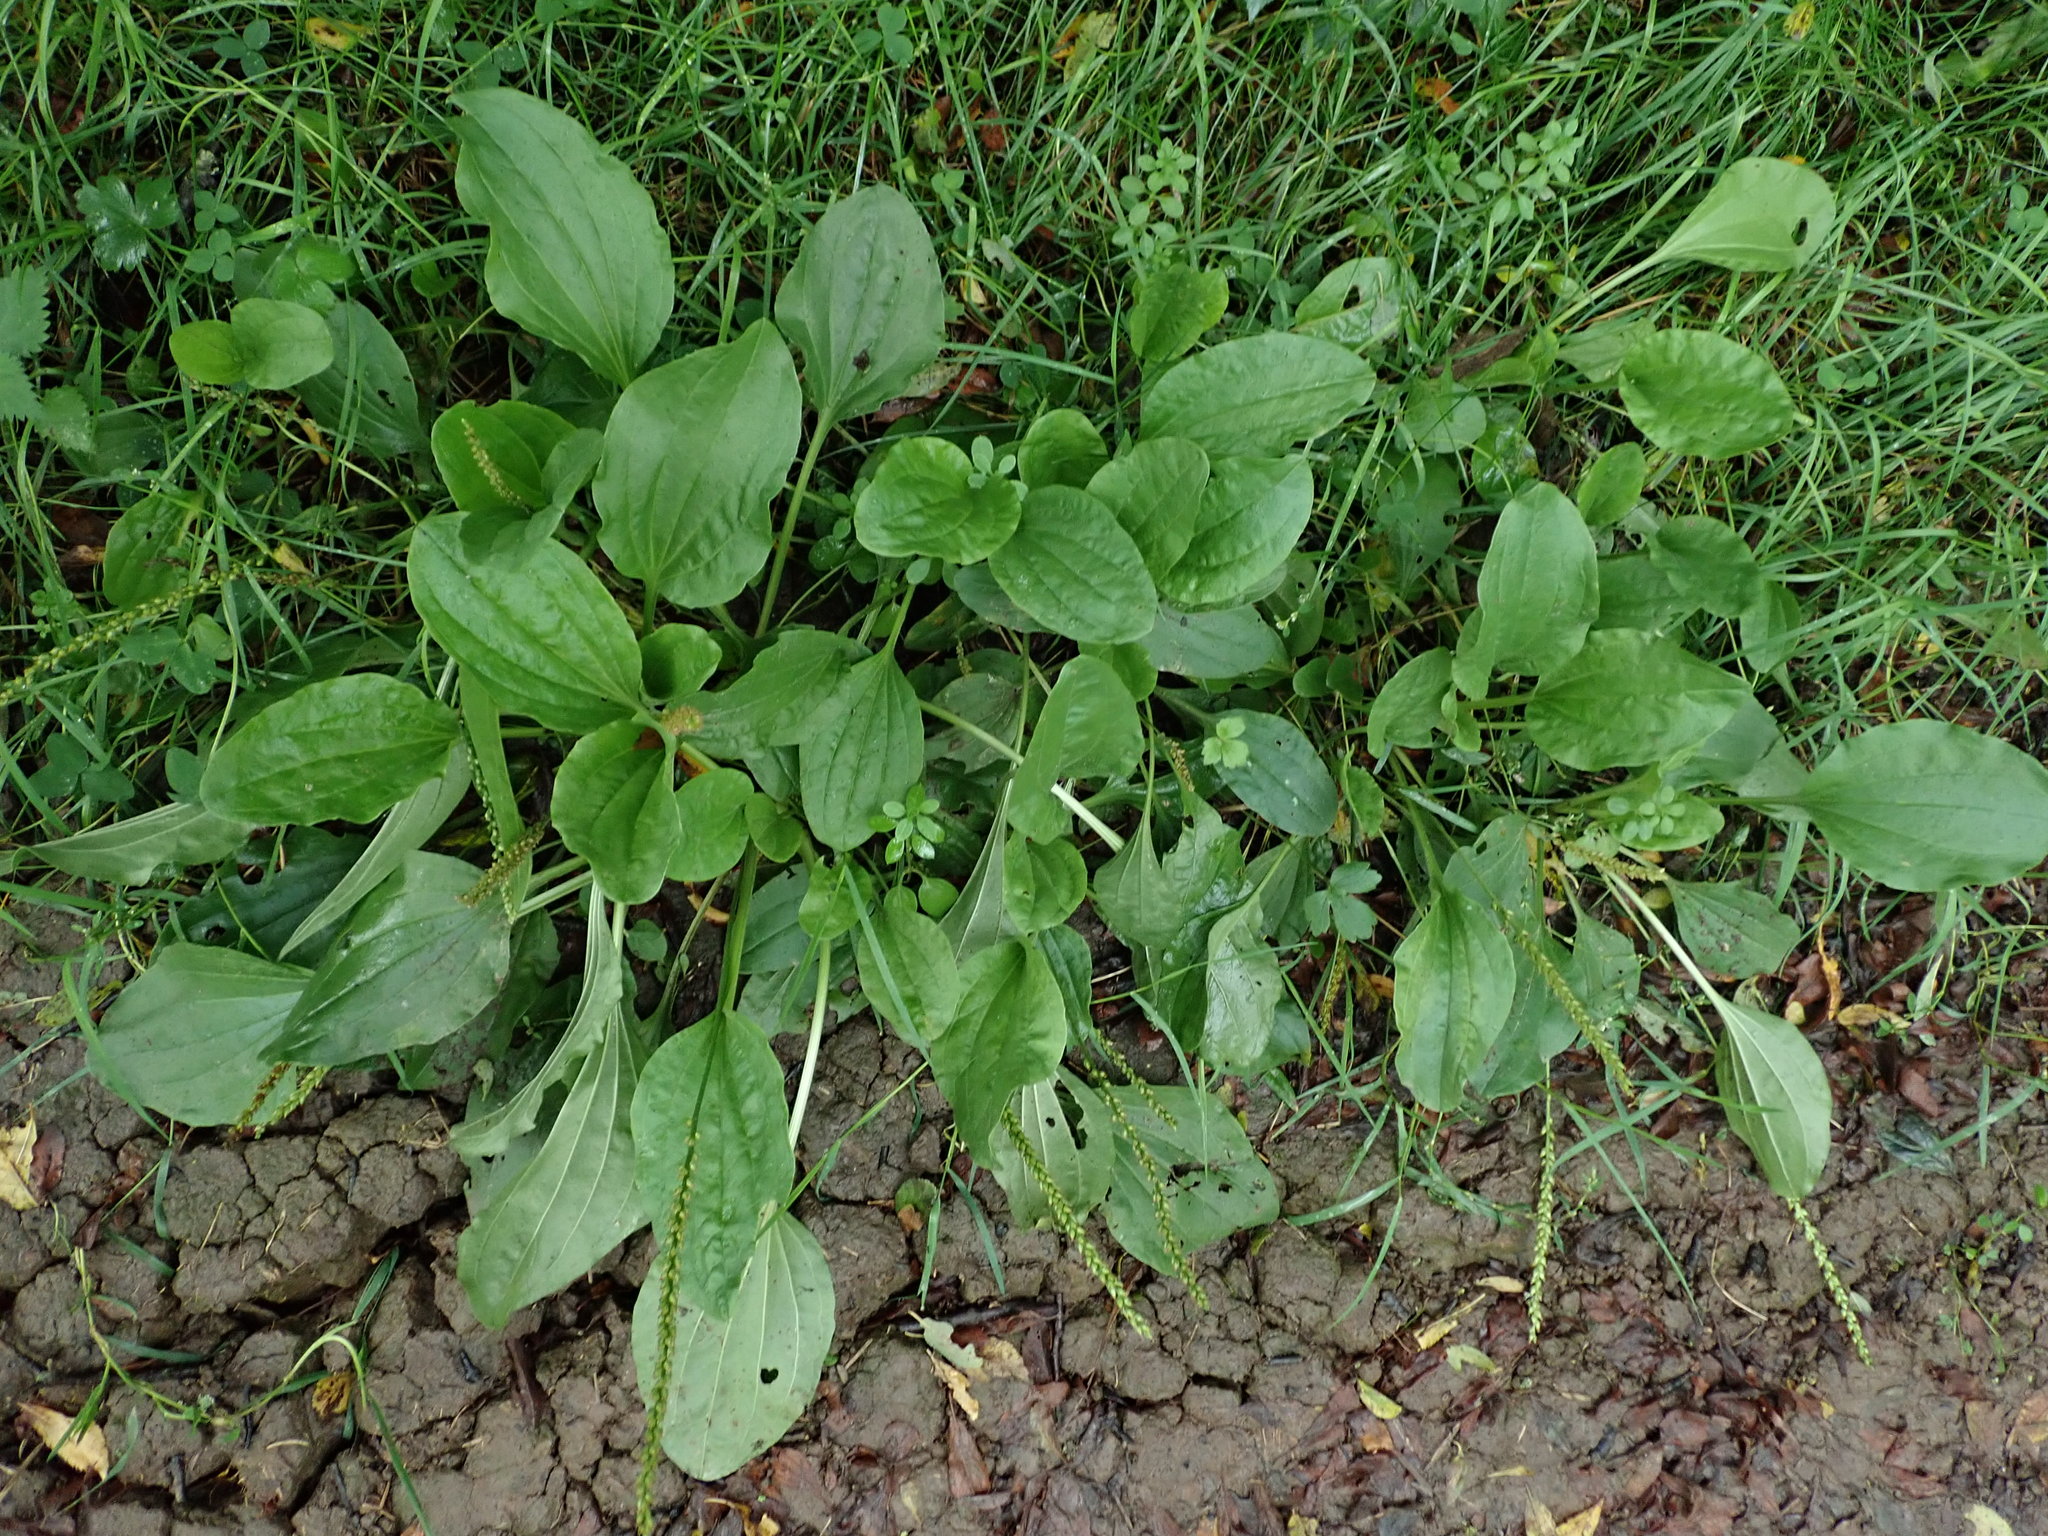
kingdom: Plantae
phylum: Tracheophyta
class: Magnoliopsida
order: Lamiales
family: Plantaginaceae
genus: Plantago
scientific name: Plantago major
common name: Common plantain
